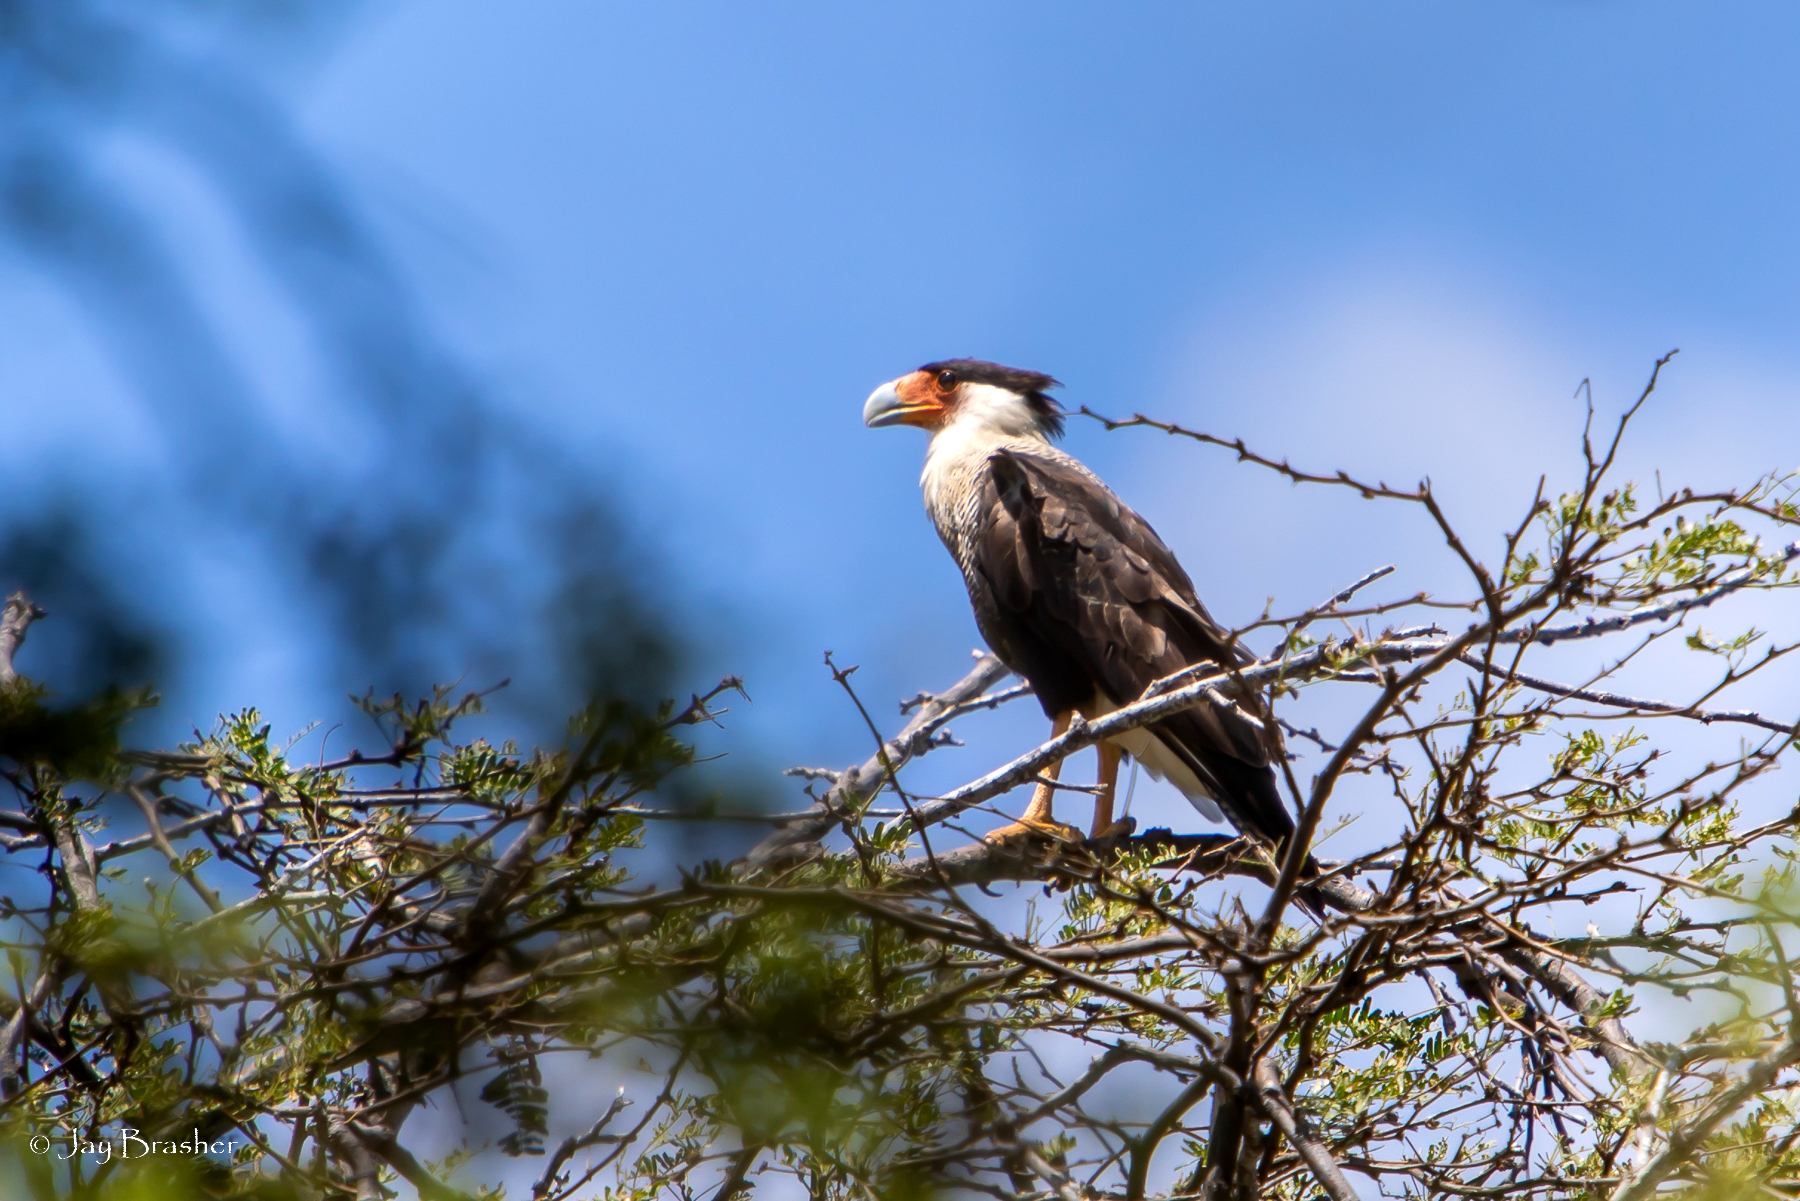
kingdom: Animalia
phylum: Chordata
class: Aves
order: Falconiformes
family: Falconidae
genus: Caracara
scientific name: Caracara plancus
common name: Southern caracara
